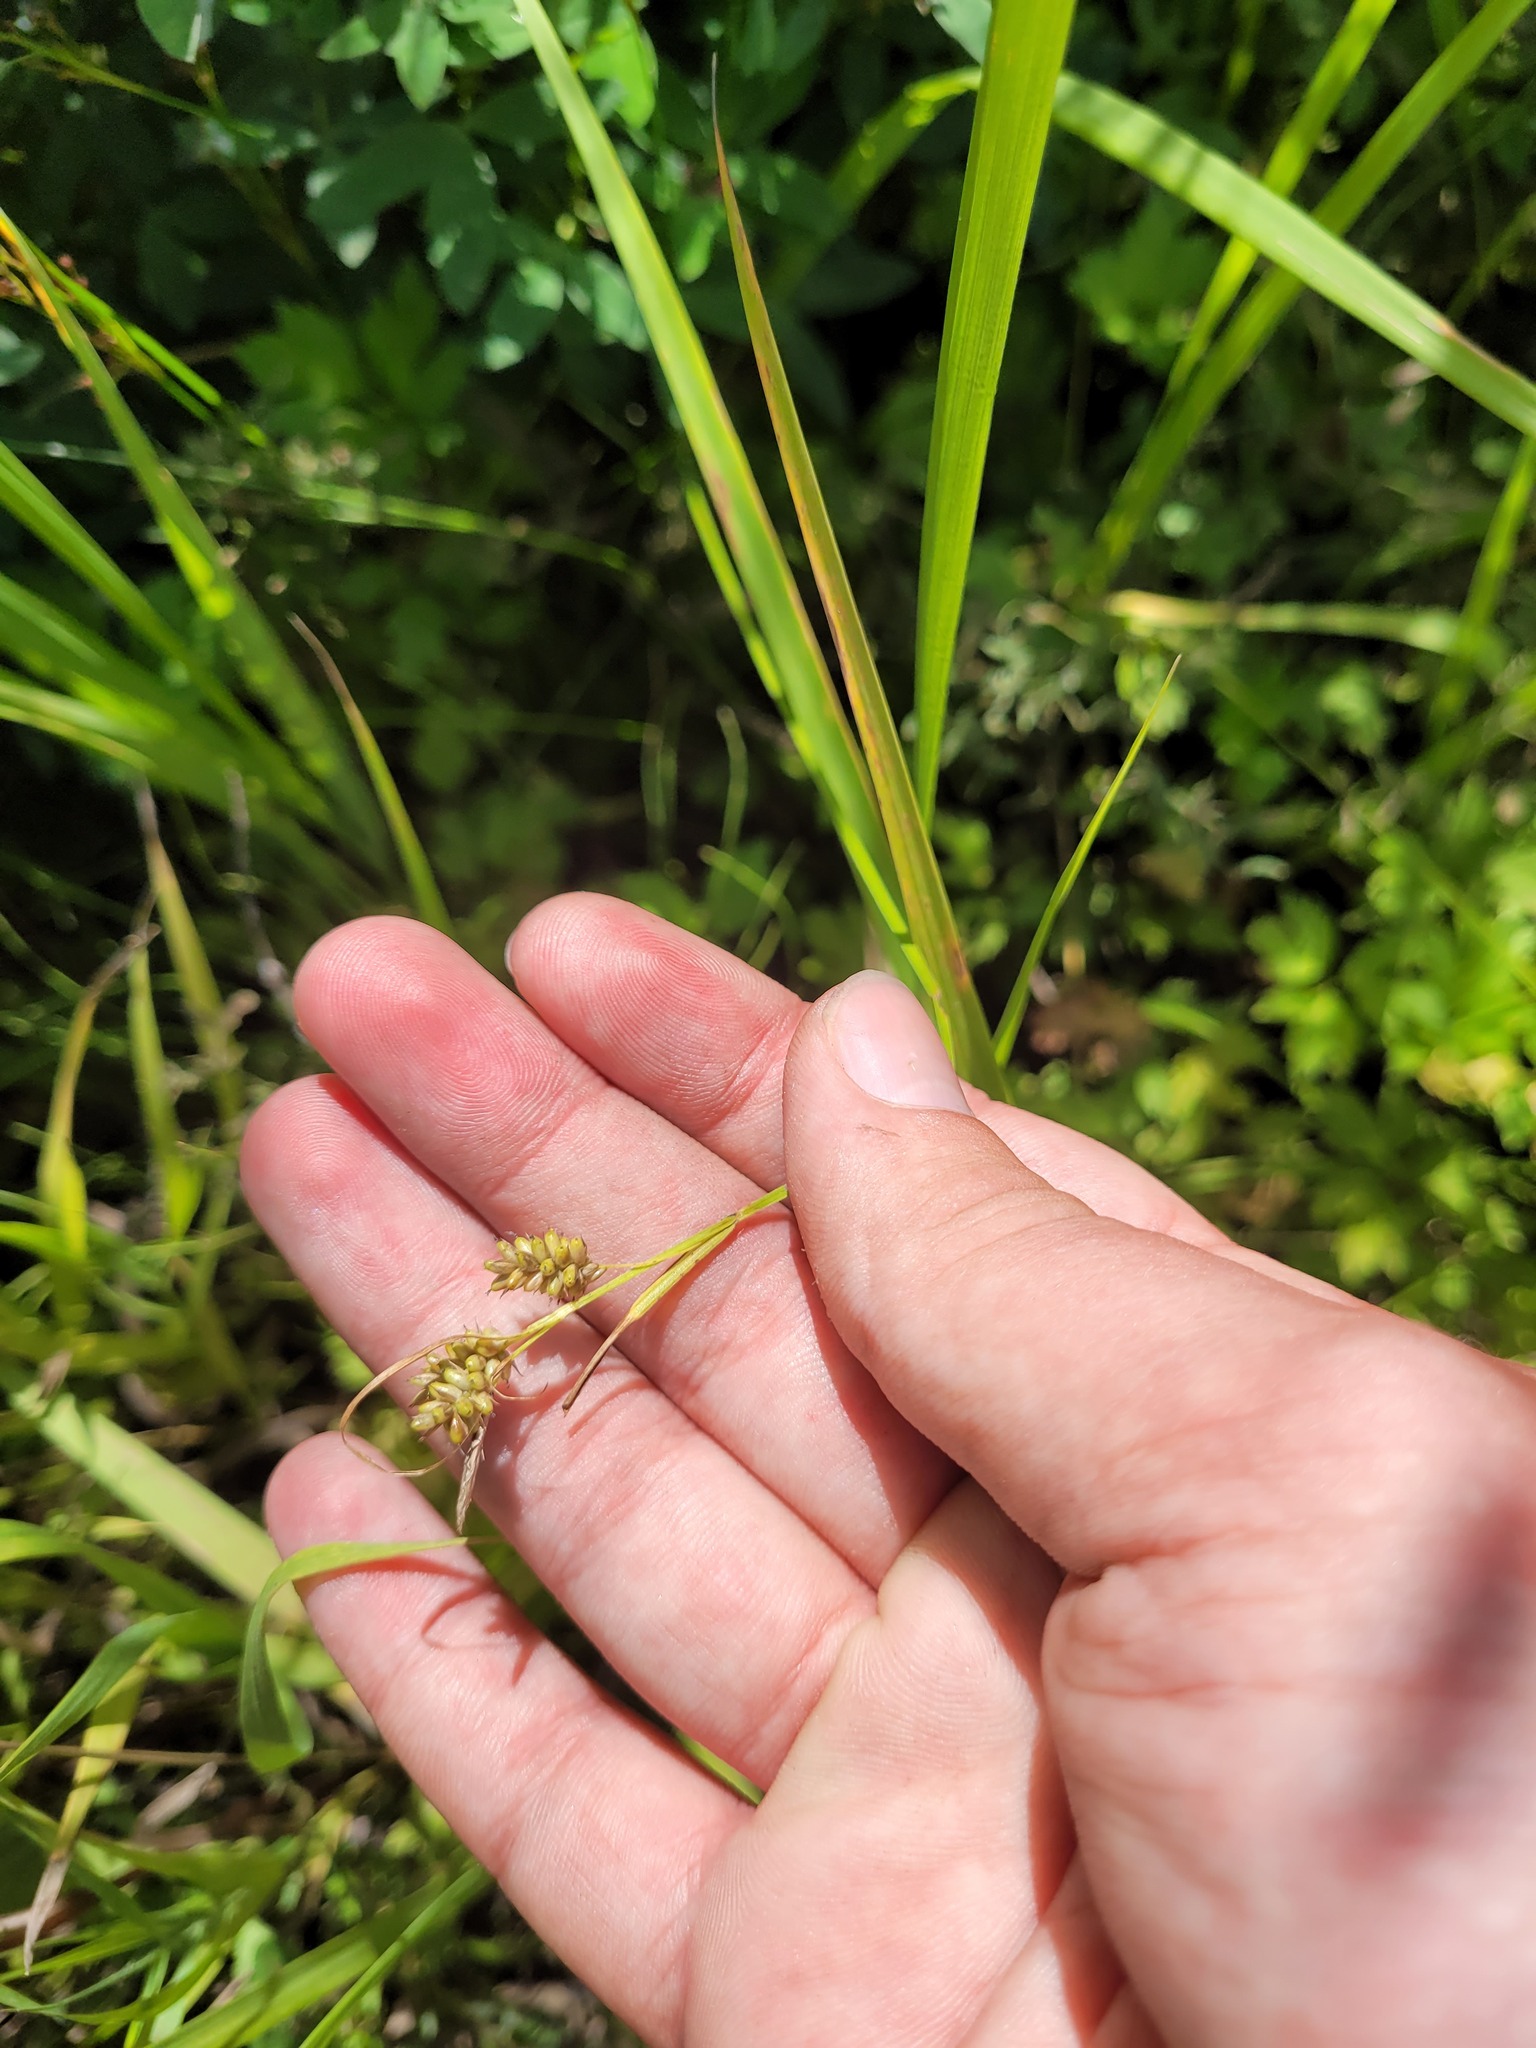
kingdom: Plantae
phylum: Tracheophyta
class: Liliopsida
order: Poales
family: Cyperaceae
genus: Carex
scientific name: Carex pallescens
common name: Pale sedge
